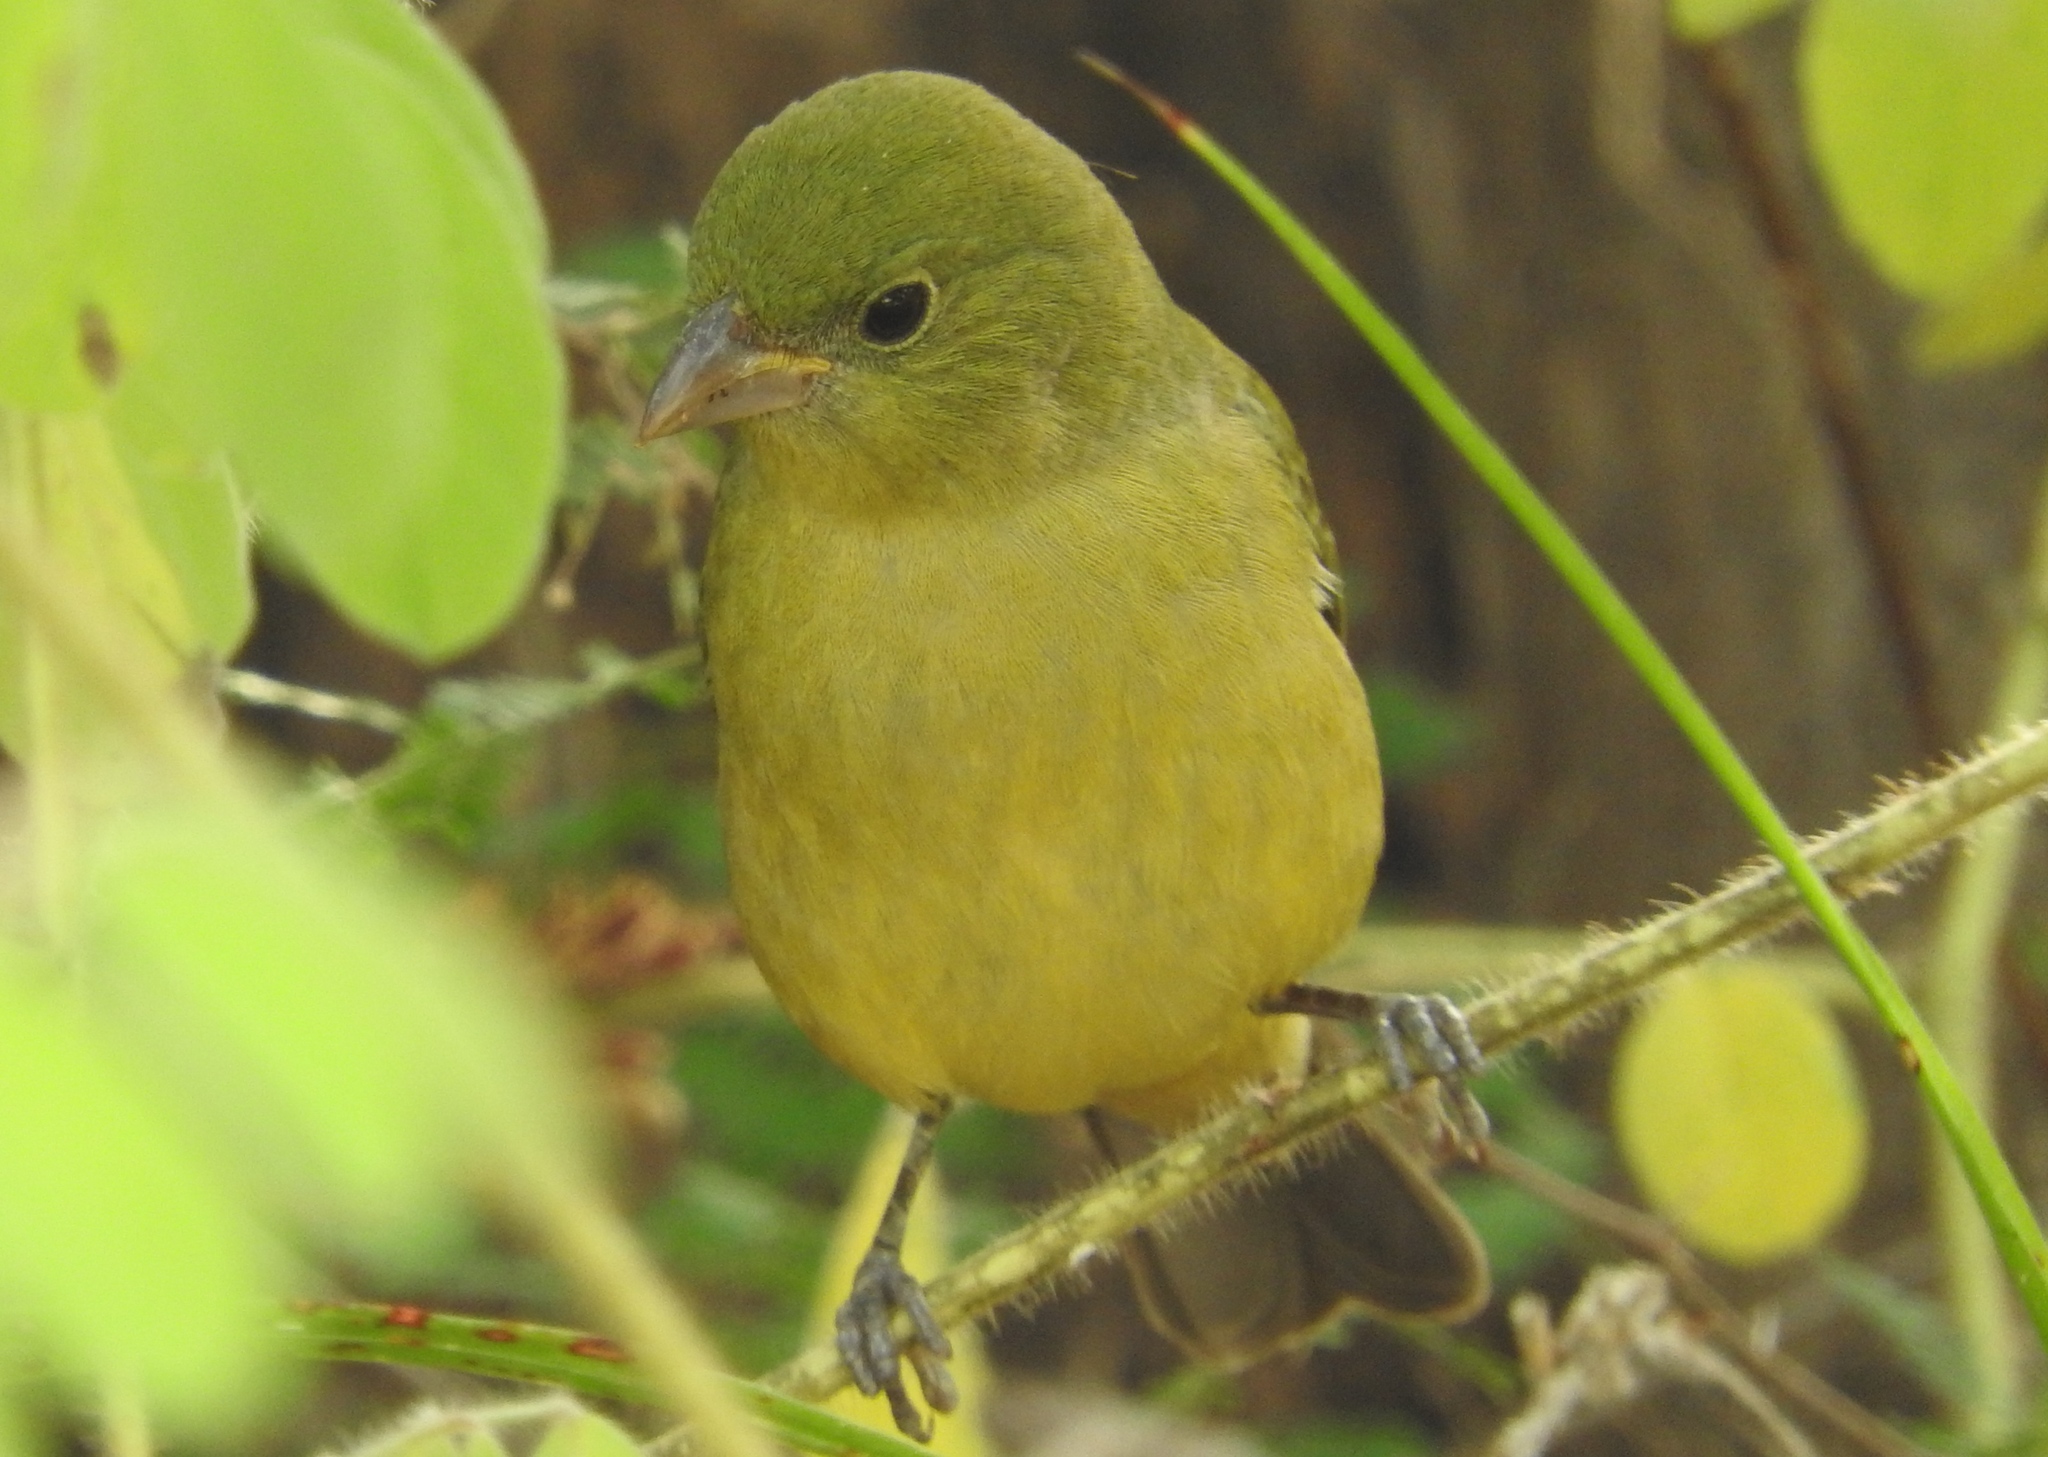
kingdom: Animalia
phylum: Chordata
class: Aves
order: Passeriformes
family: Cardinalidae
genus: Passerina
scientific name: Passerina ciris
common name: Painted bunting
